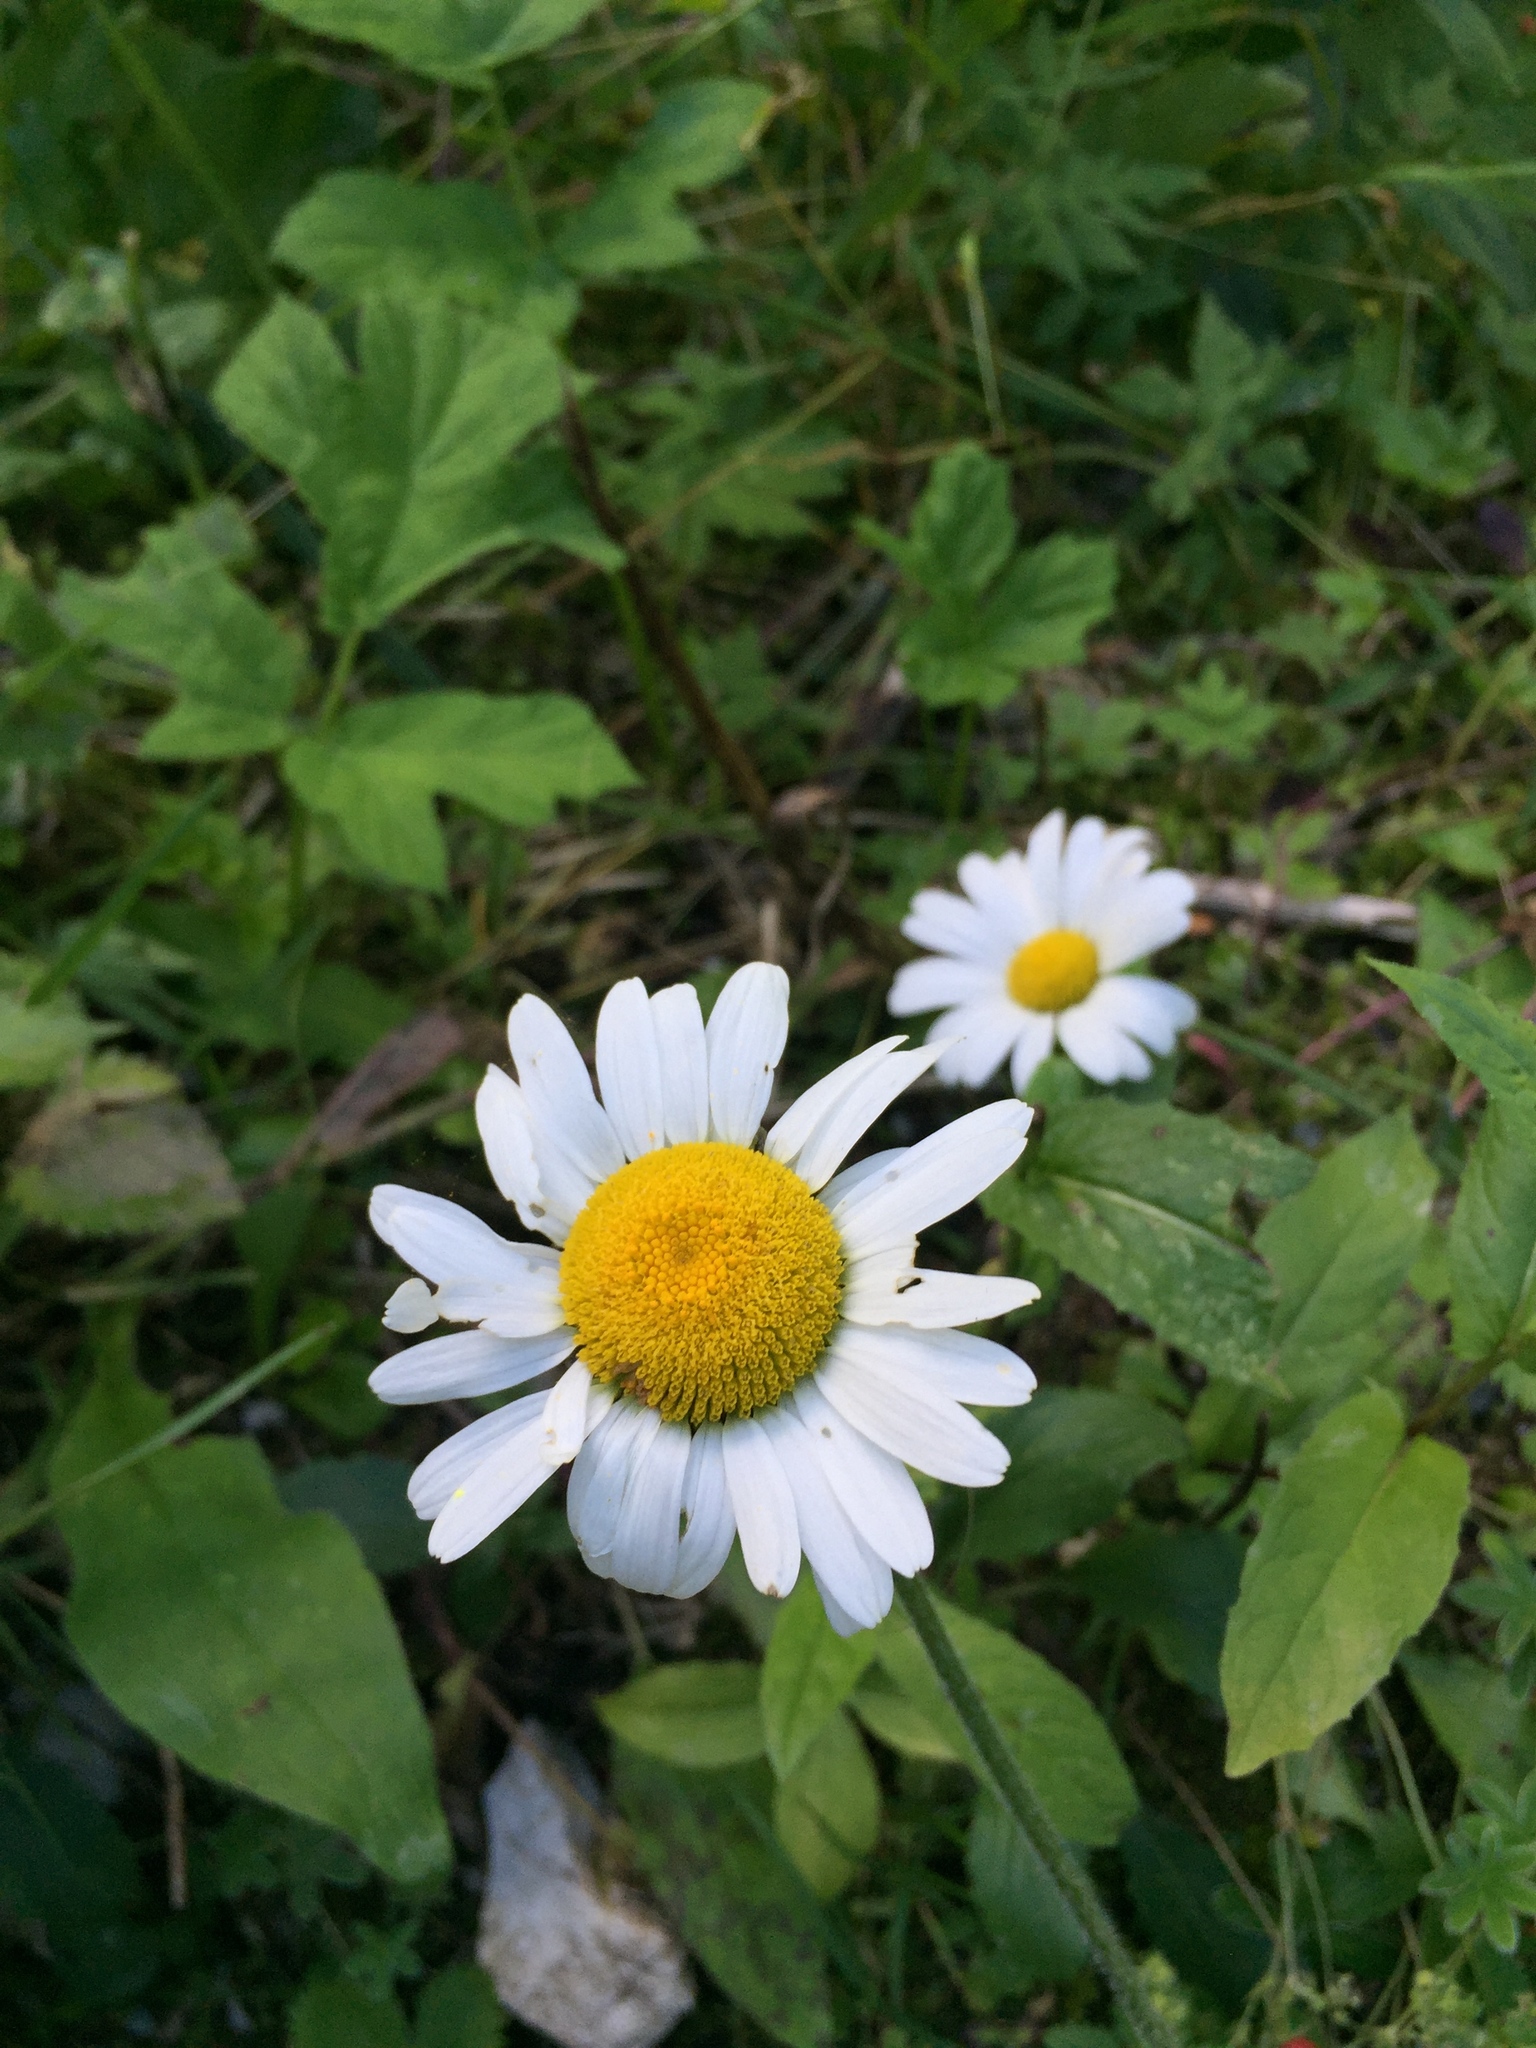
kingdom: Plantae
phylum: Tracheophyta
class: Magnoliopsida
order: Asterales
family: Asteraceae
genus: Leucanthemum
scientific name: Leucanthemum vulgare
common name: Oxeye daisy
